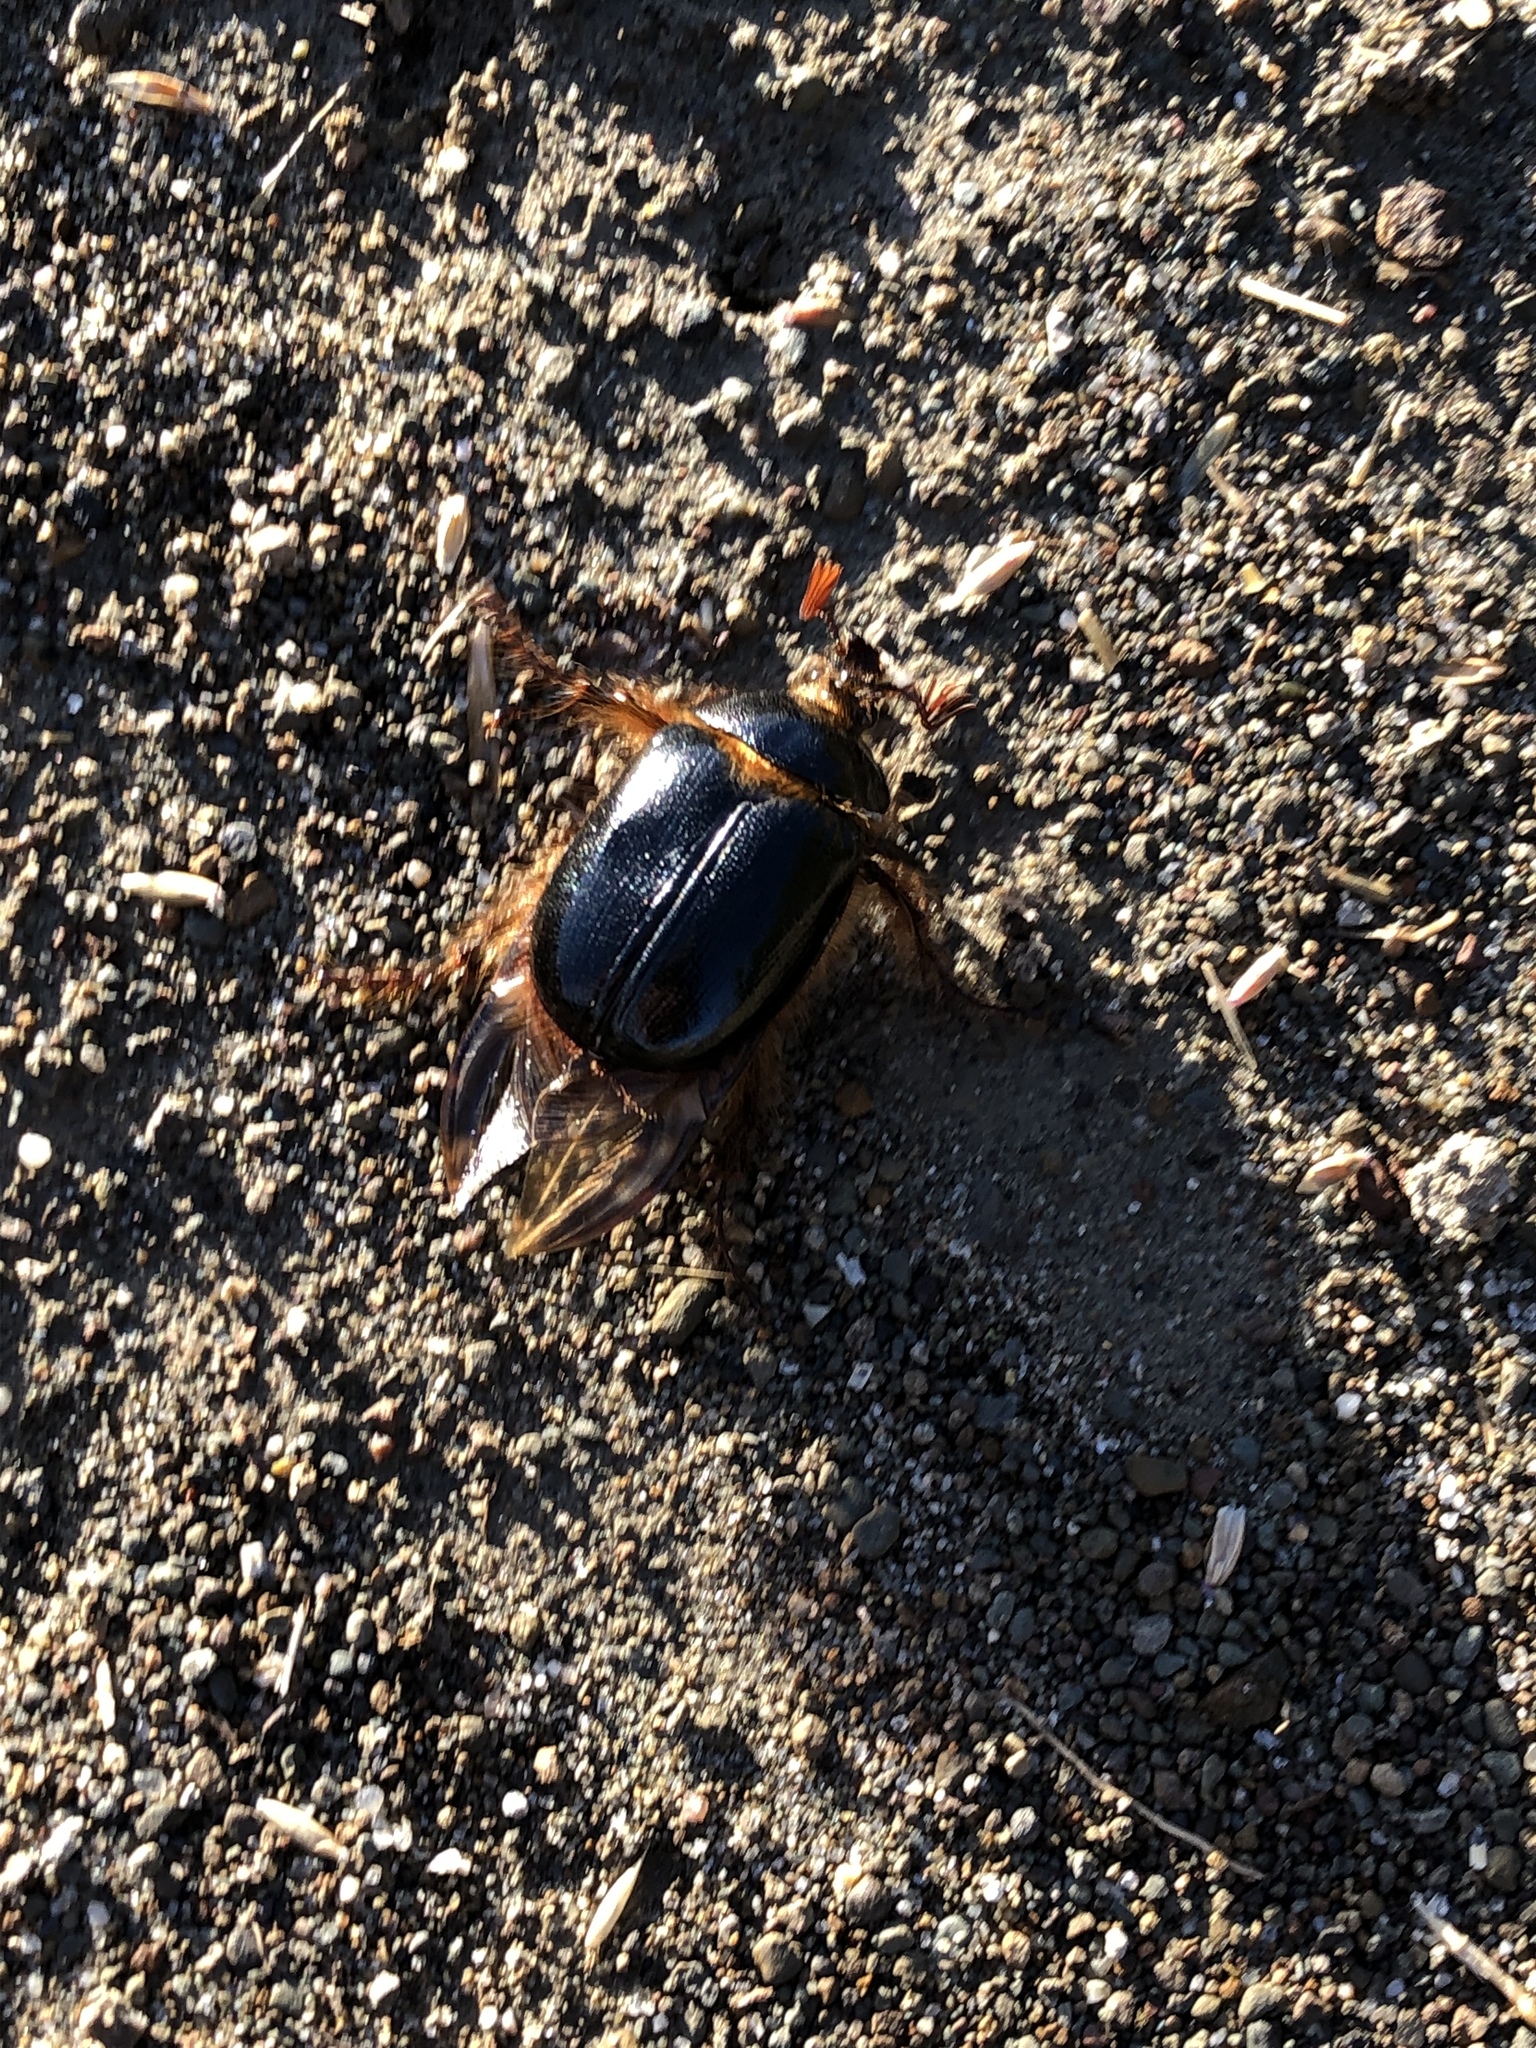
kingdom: Animalia
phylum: Arthropoda
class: Insecta
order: Coleoptera
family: Pleocomidae
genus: Pleocoma
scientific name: Pleocoma behrensi
